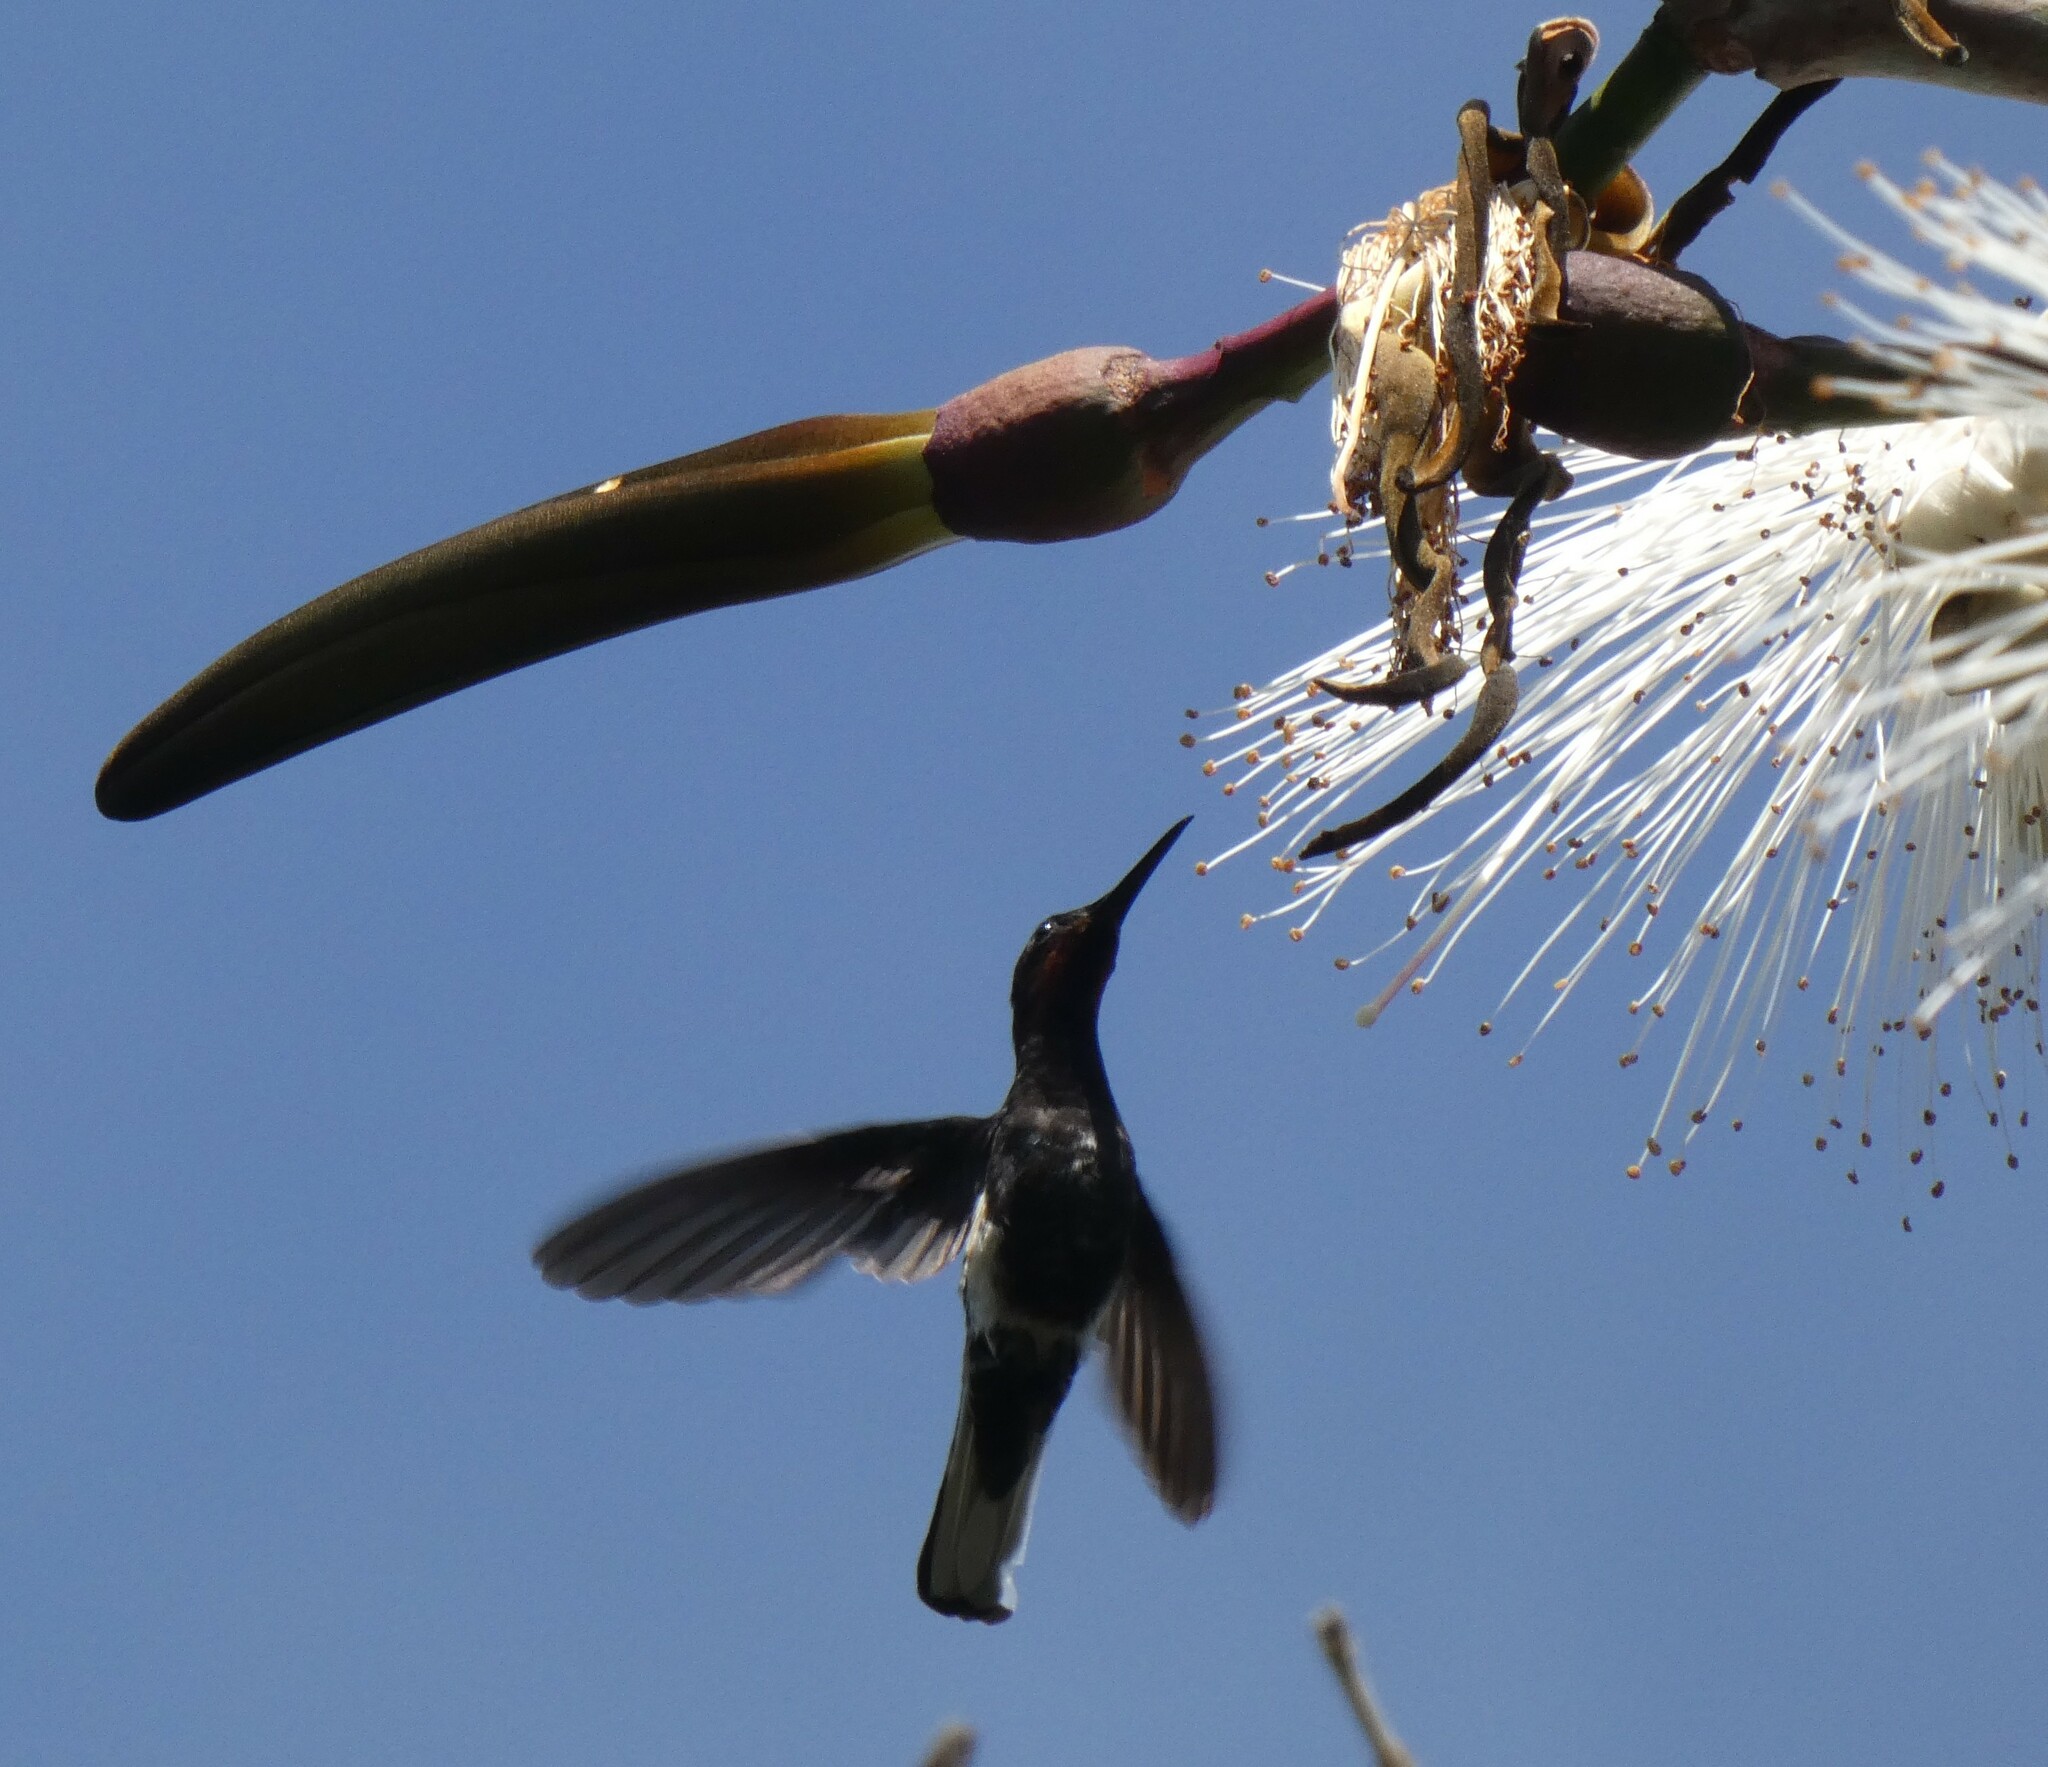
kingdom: Animalia
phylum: Chordata
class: Aves
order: Apodiformes
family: Trochilidae
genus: Florisuga
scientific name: Florisuga fusca
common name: Black jacobin
